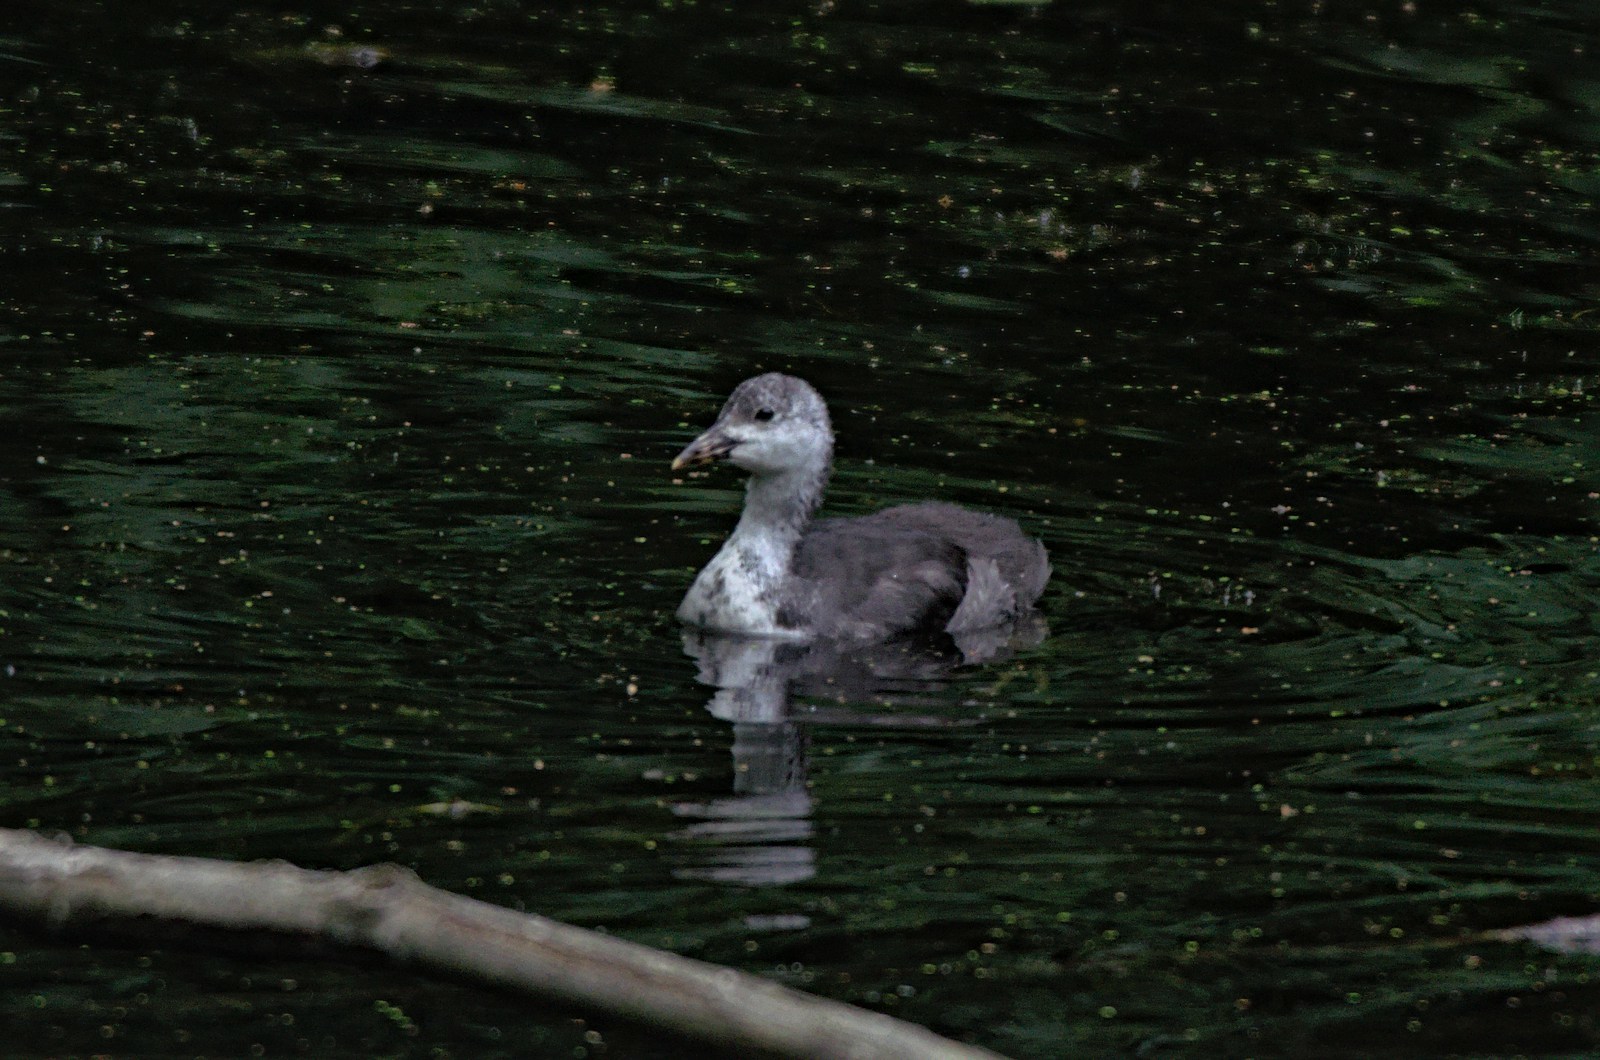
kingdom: Animalia
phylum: Chordata
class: Aves
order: Gruiformes
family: Rallidae
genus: Fulica
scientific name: Fulica atra
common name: Eurasian coot
